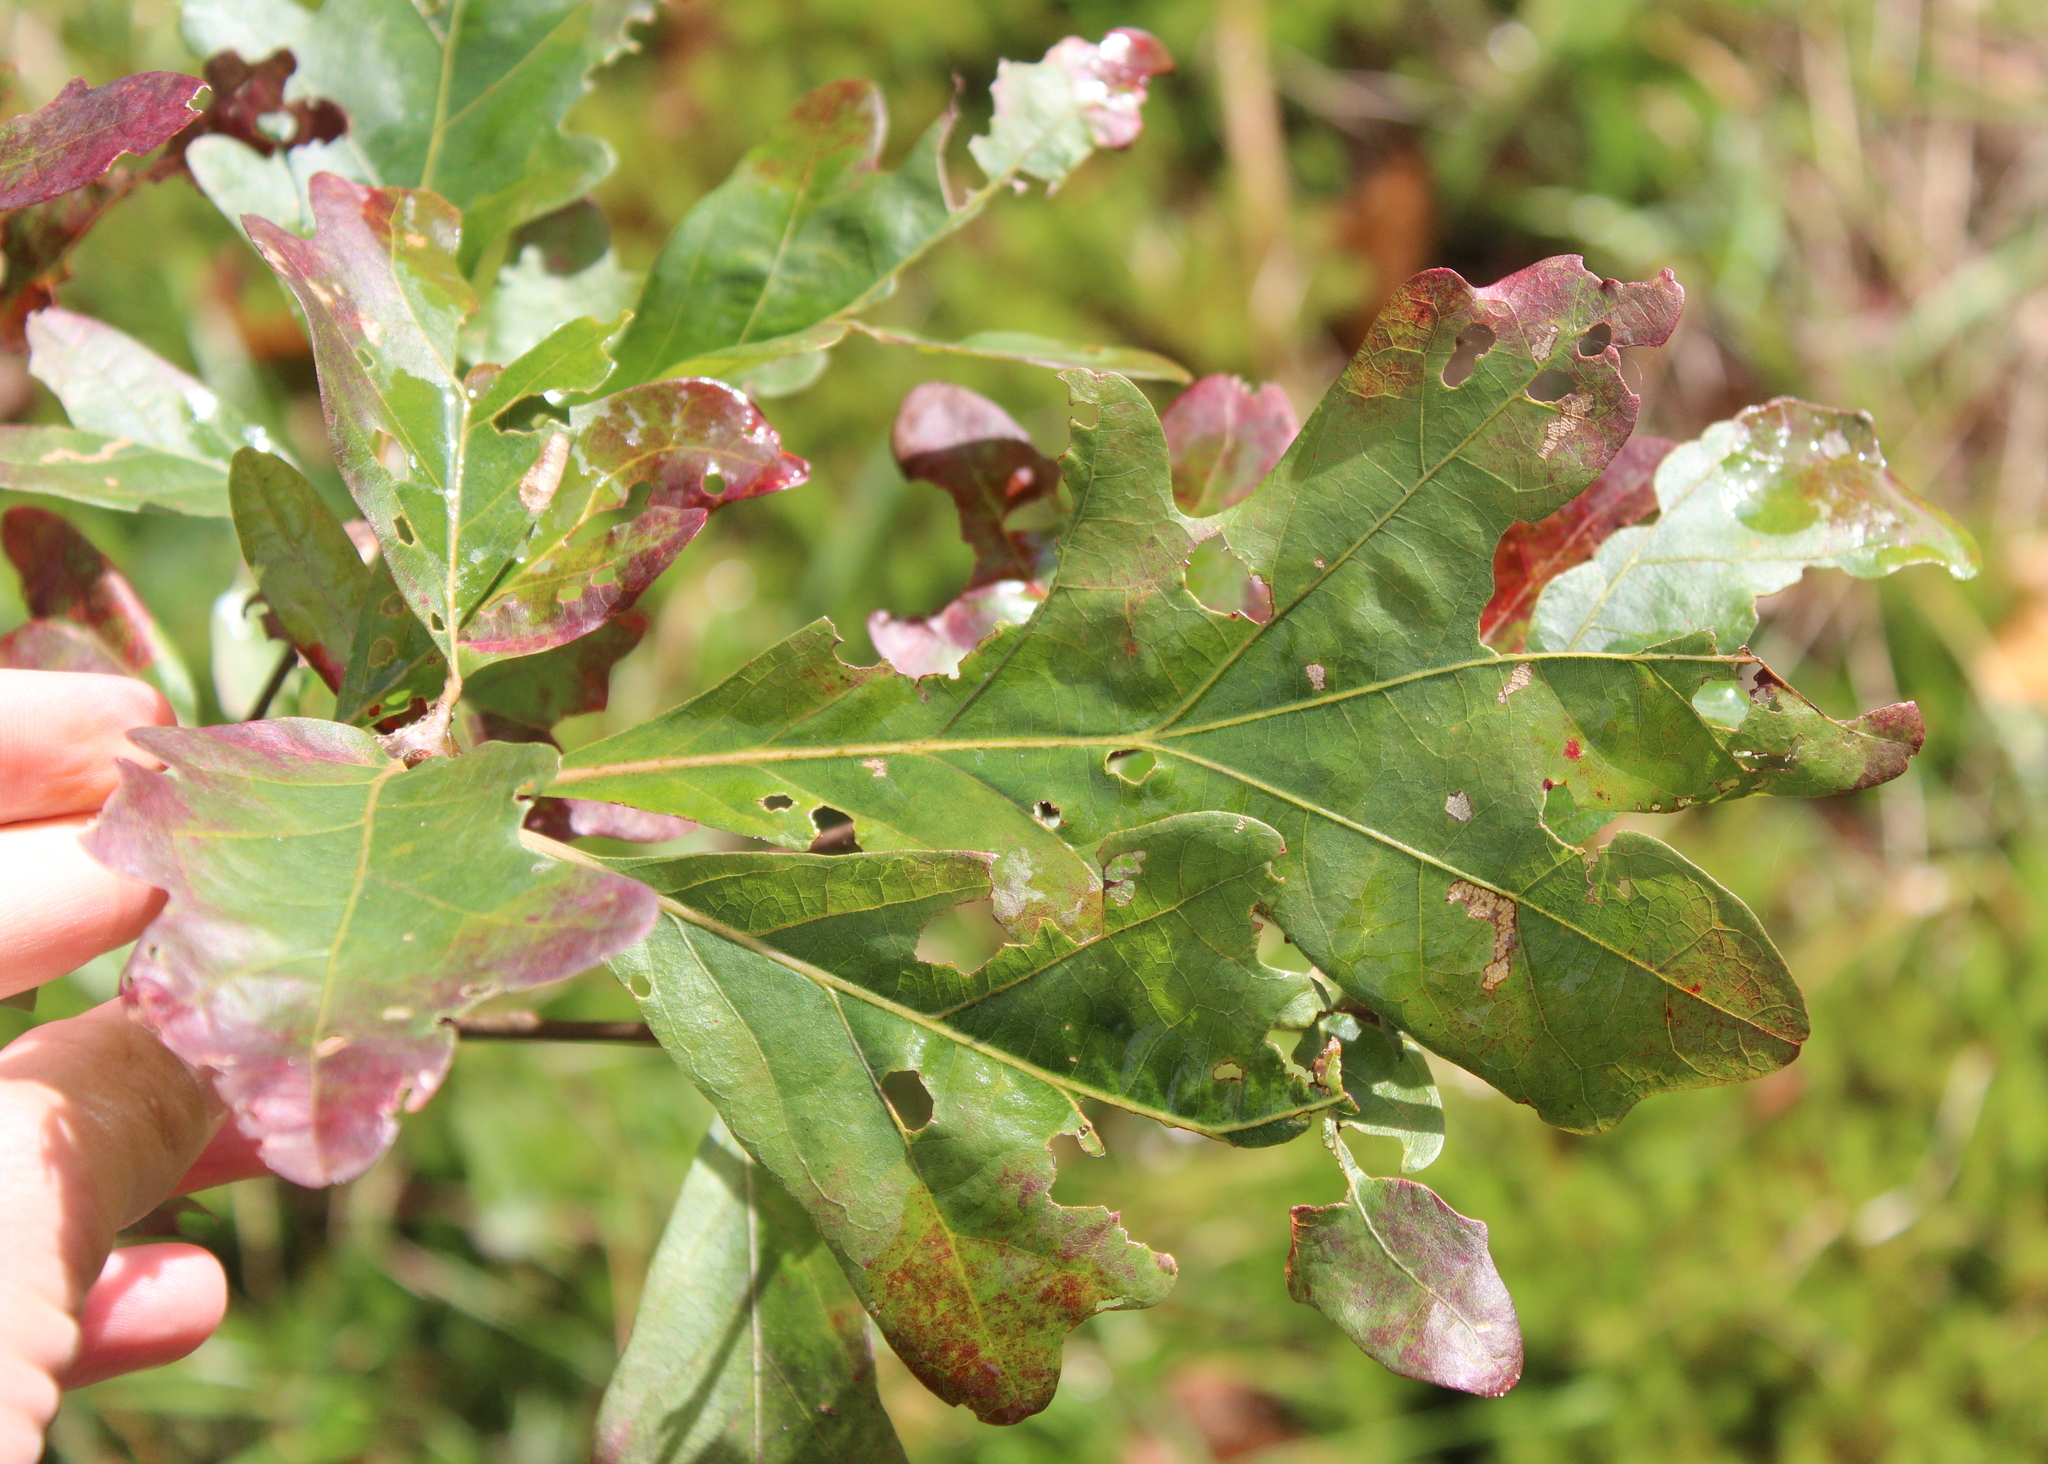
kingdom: Plantae
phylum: Tracheophyta
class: Magnoliopsida
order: Fagales
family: Fagaceae
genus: Quercus
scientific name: Quercus alba
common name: White oak
